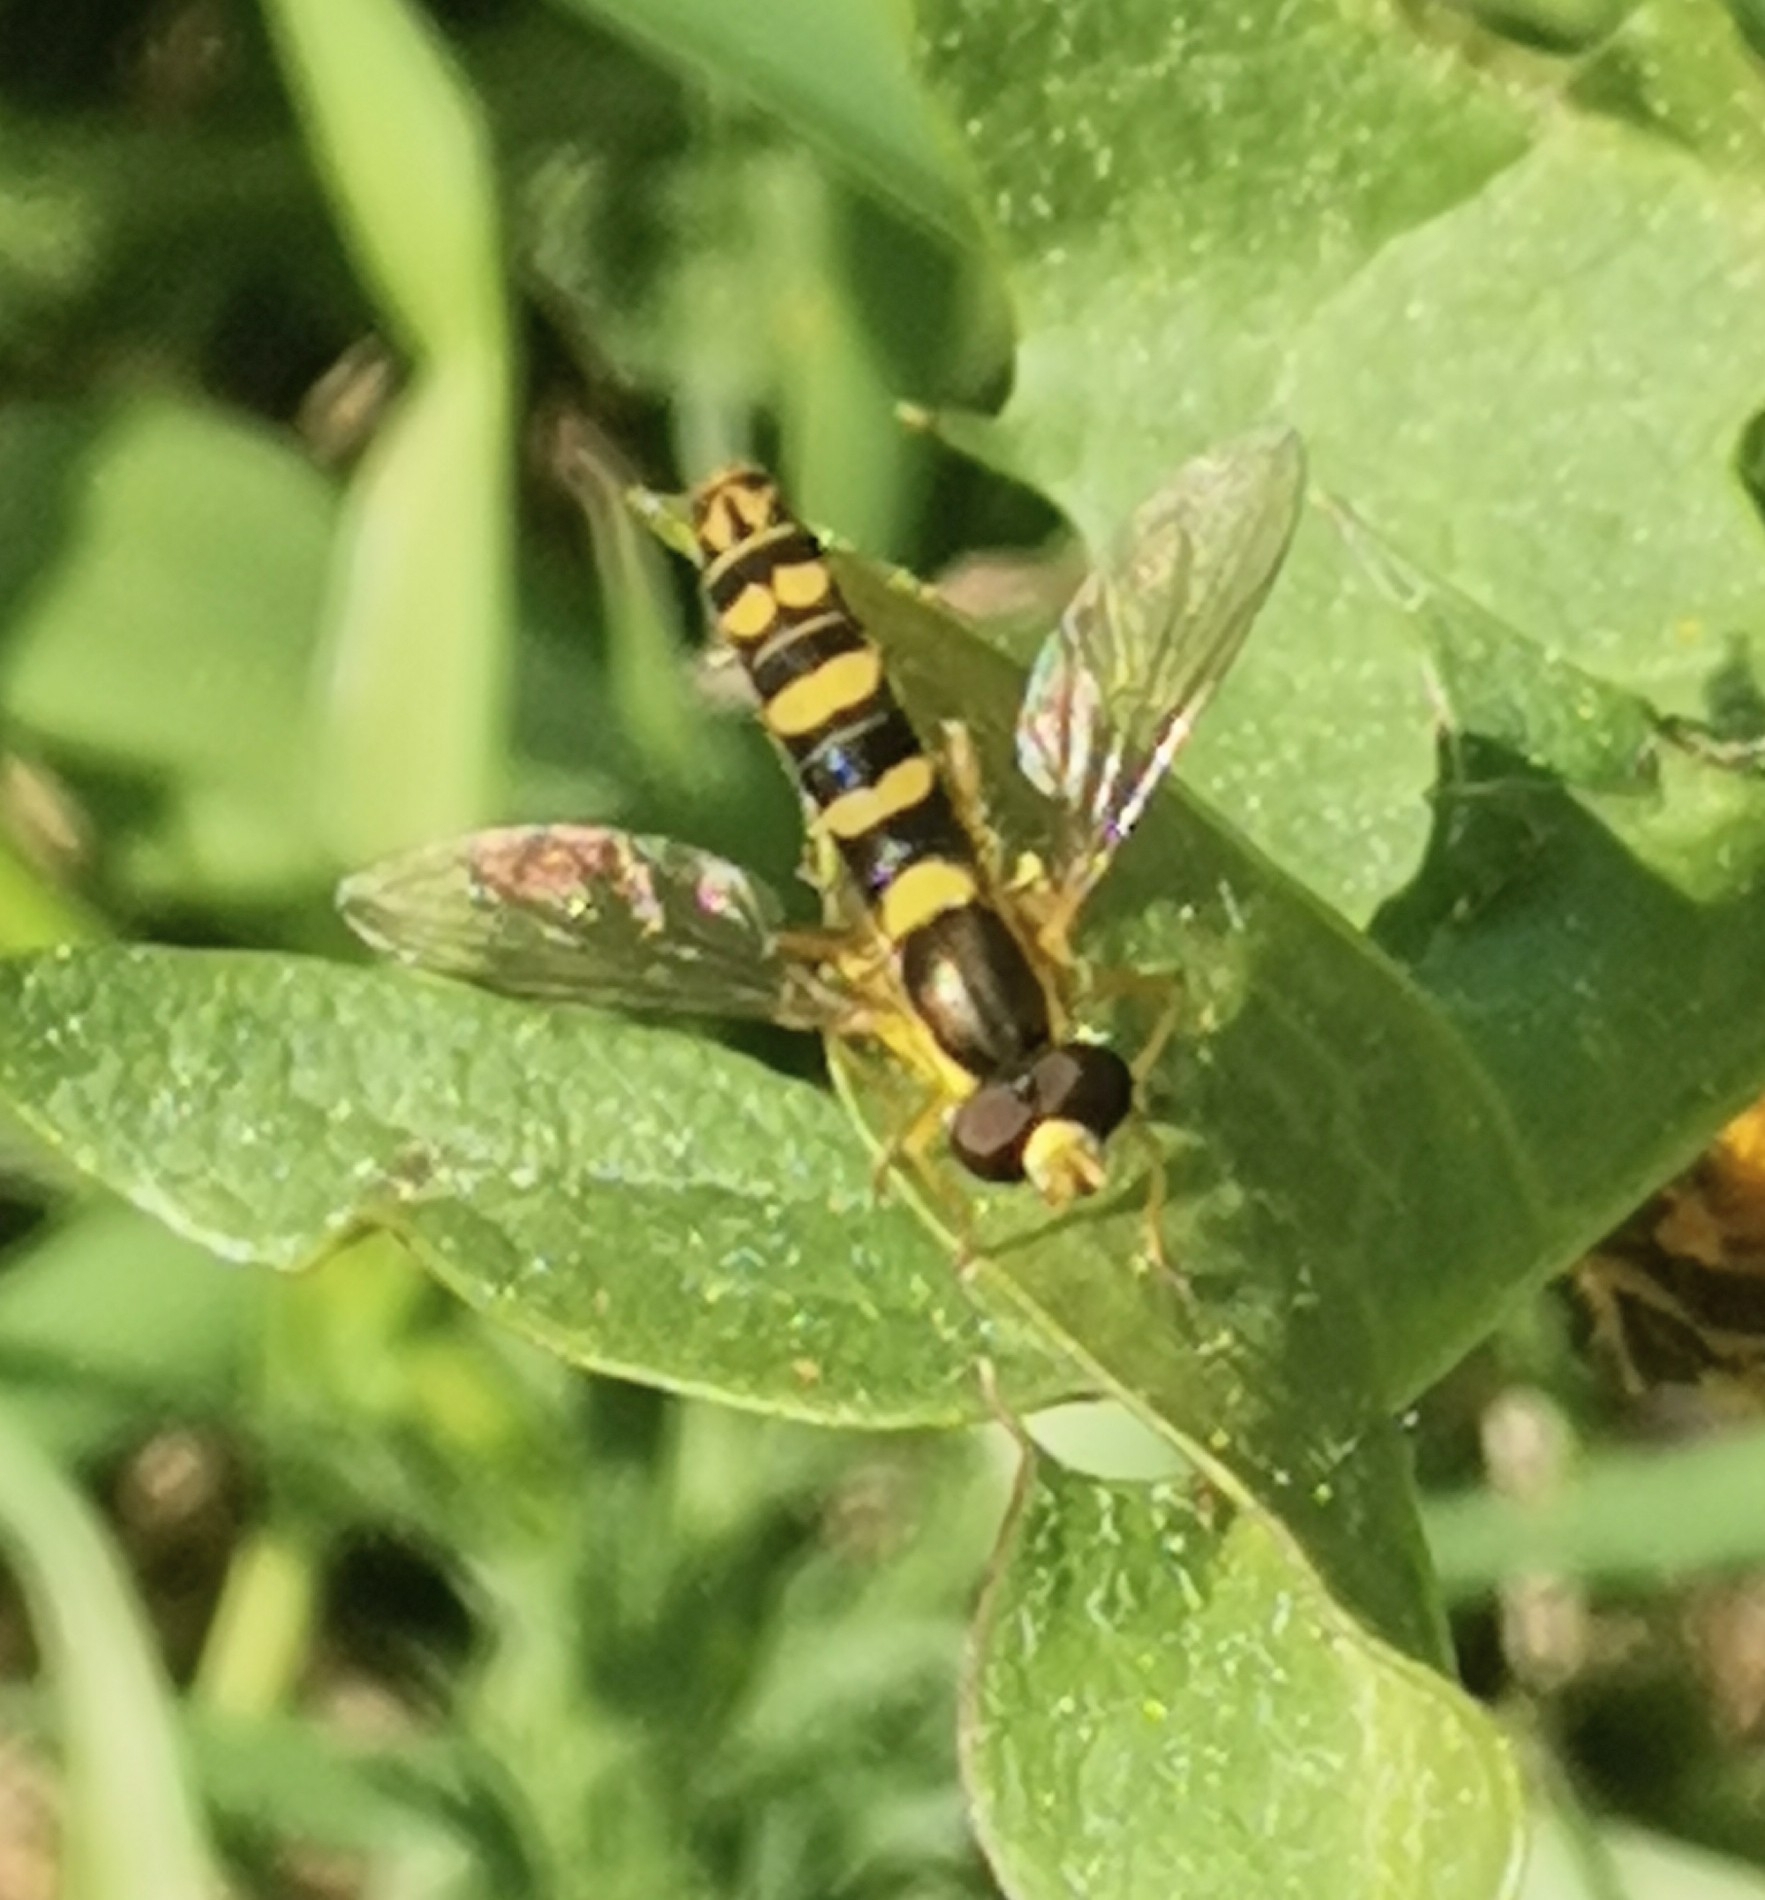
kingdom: Animalia
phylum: Arthropoda
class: Insecta
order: Diptera
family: Syrphidae
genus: Sphaerophoria
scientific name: Sphaerophoria scripta
